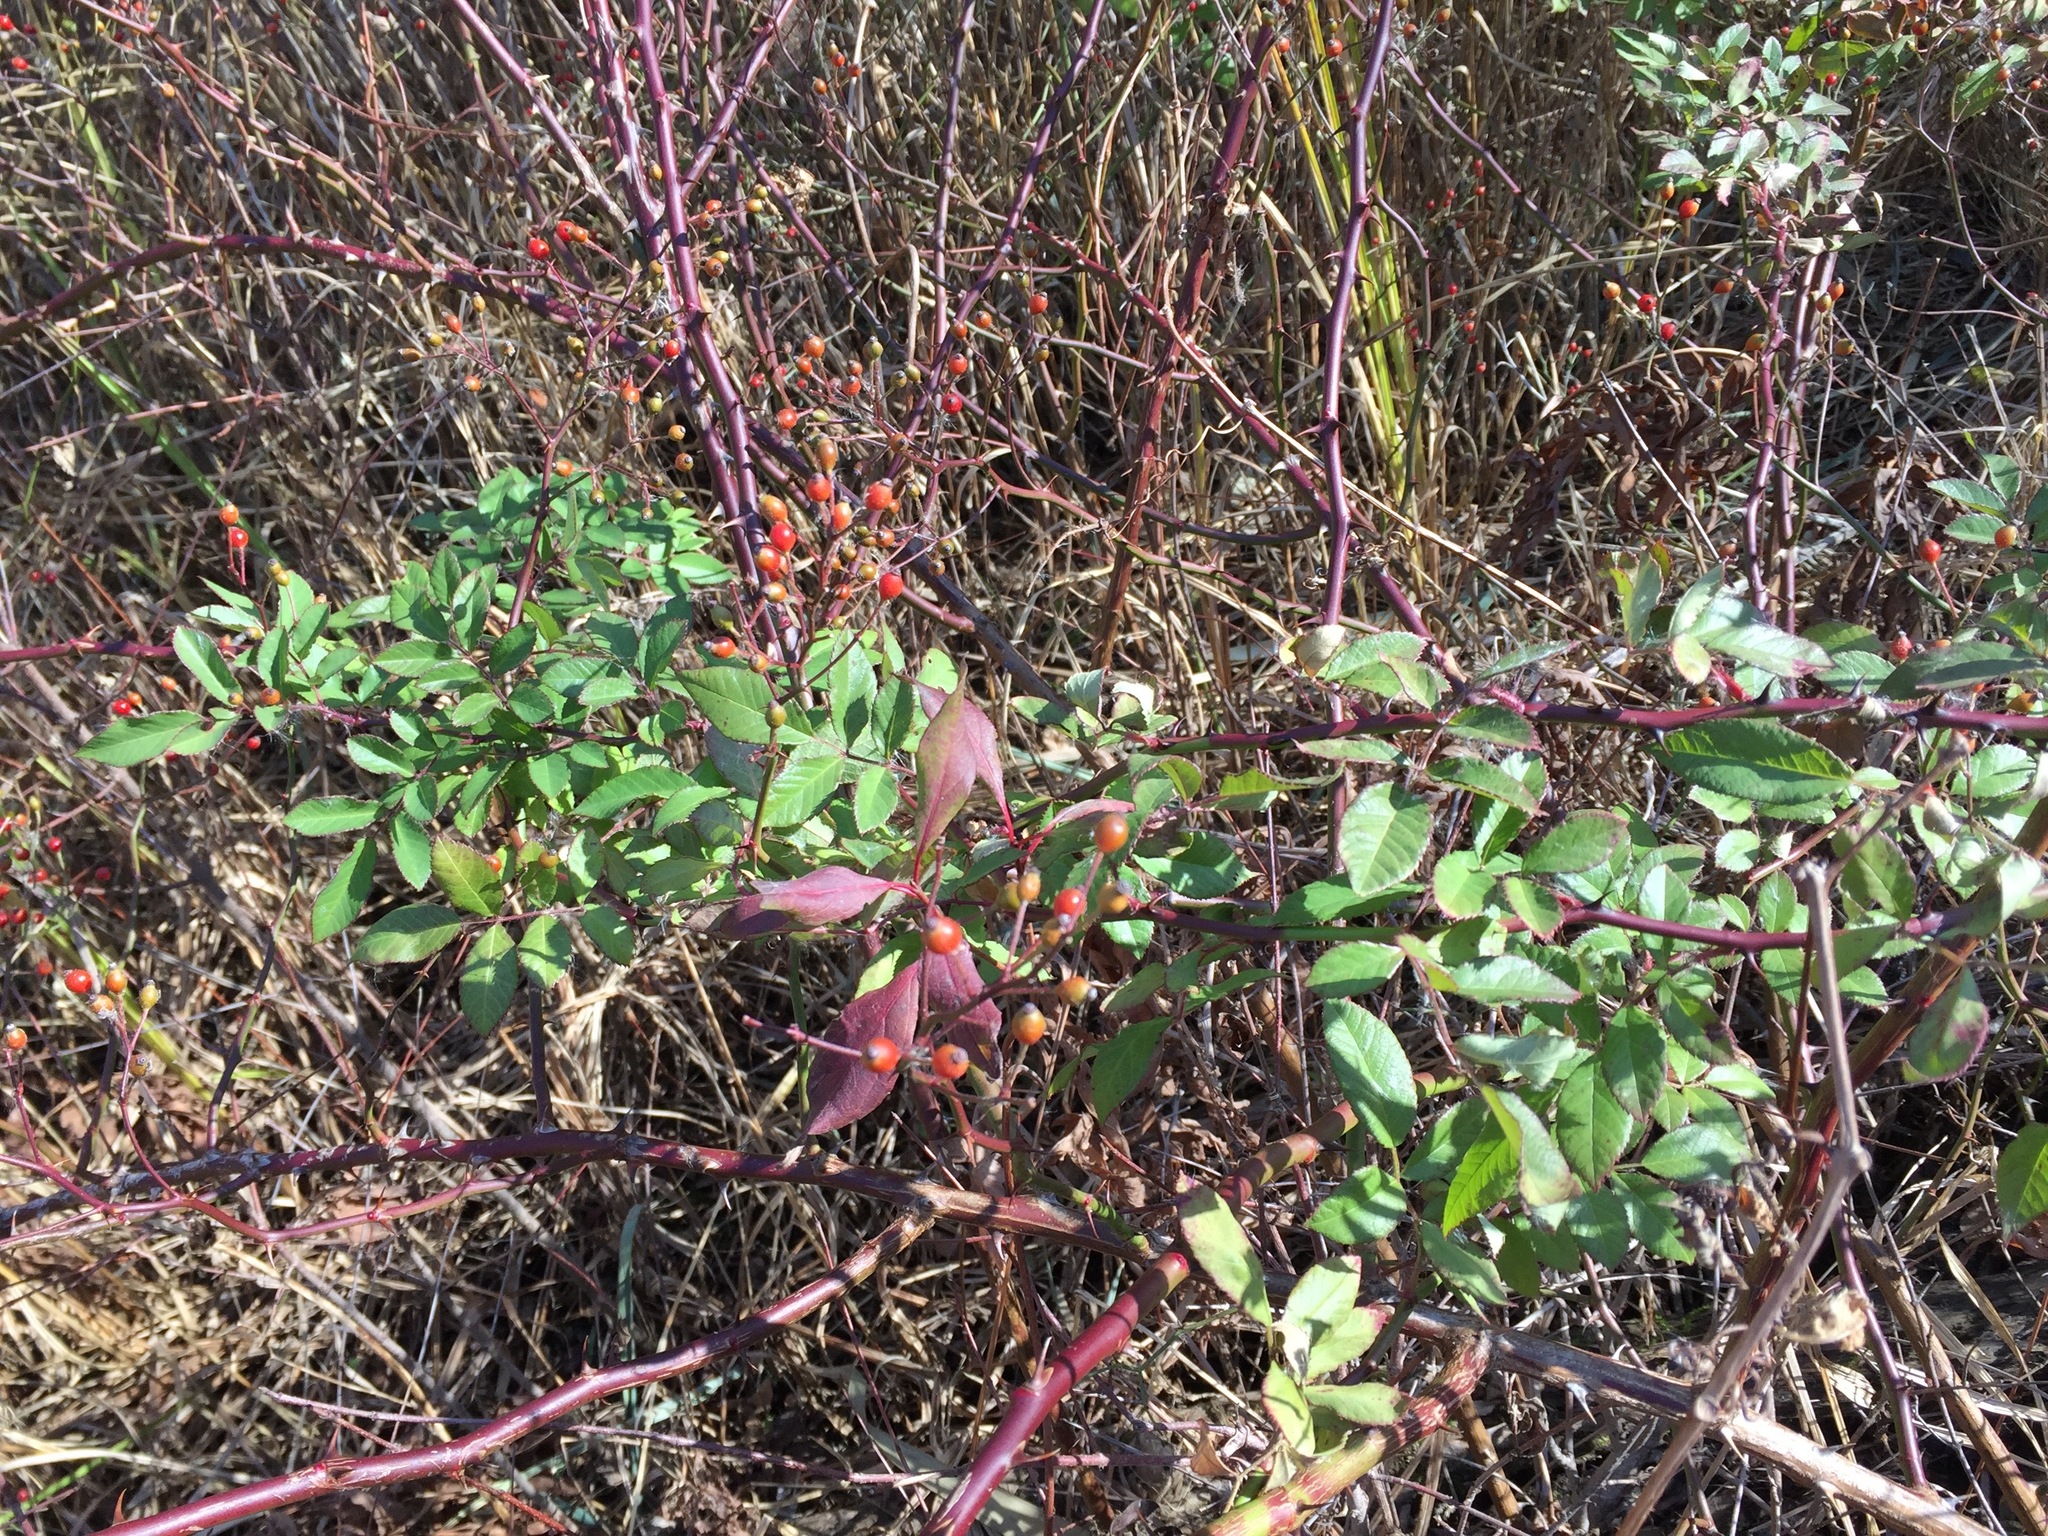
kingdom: Plantae
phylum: Tracheophyta
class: Magnoliopsida
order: Rosales
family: Rosaceae
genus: Rosa
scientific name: Rosa multiflora
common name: Multiflora rose
